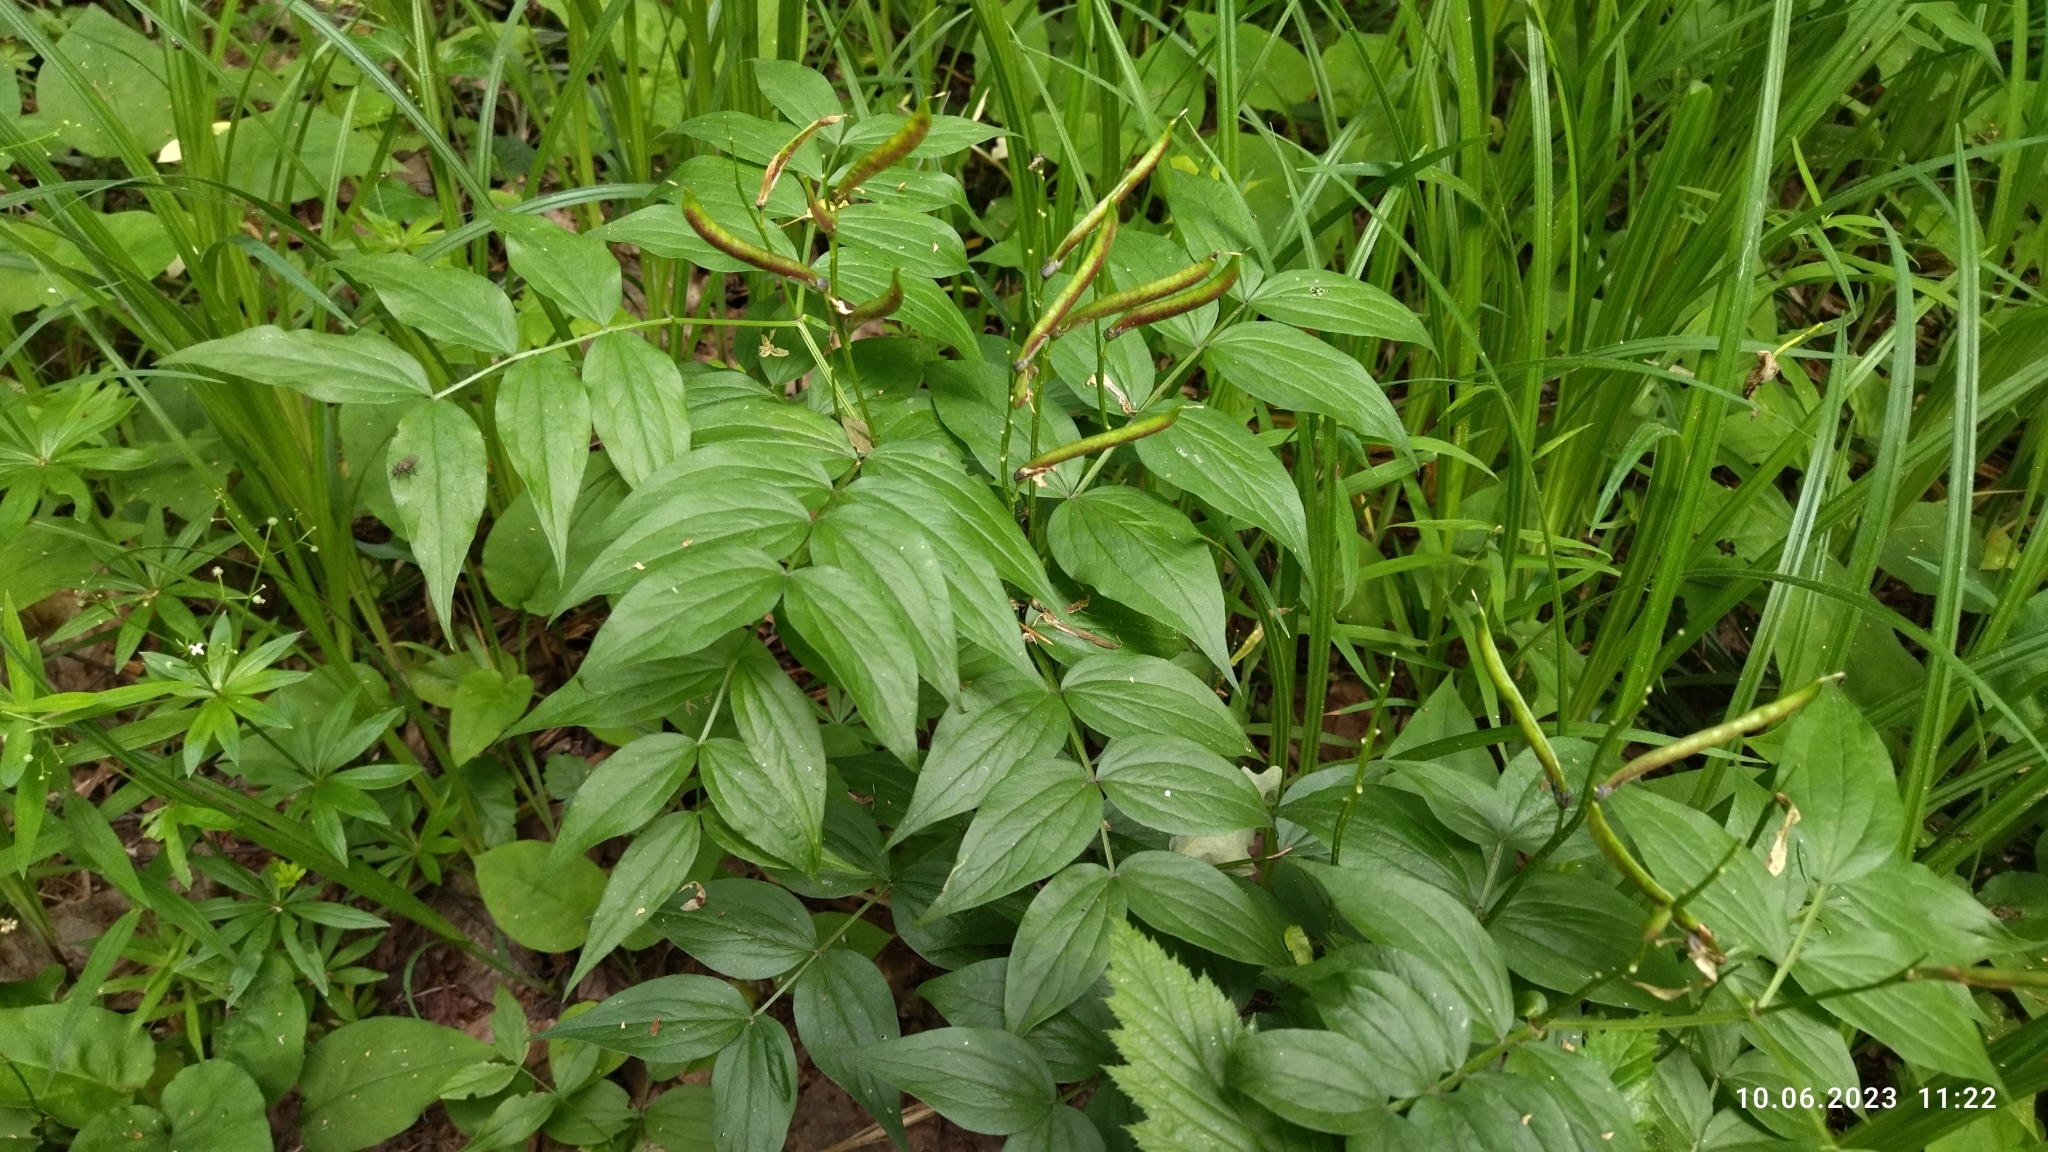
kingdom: Plantae
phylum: Tracheophyta
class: Magnoliopsida
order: Fabales
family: Fabaceae
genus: Lathyrus
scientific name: Lathyrus vernus
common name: Spring pea
